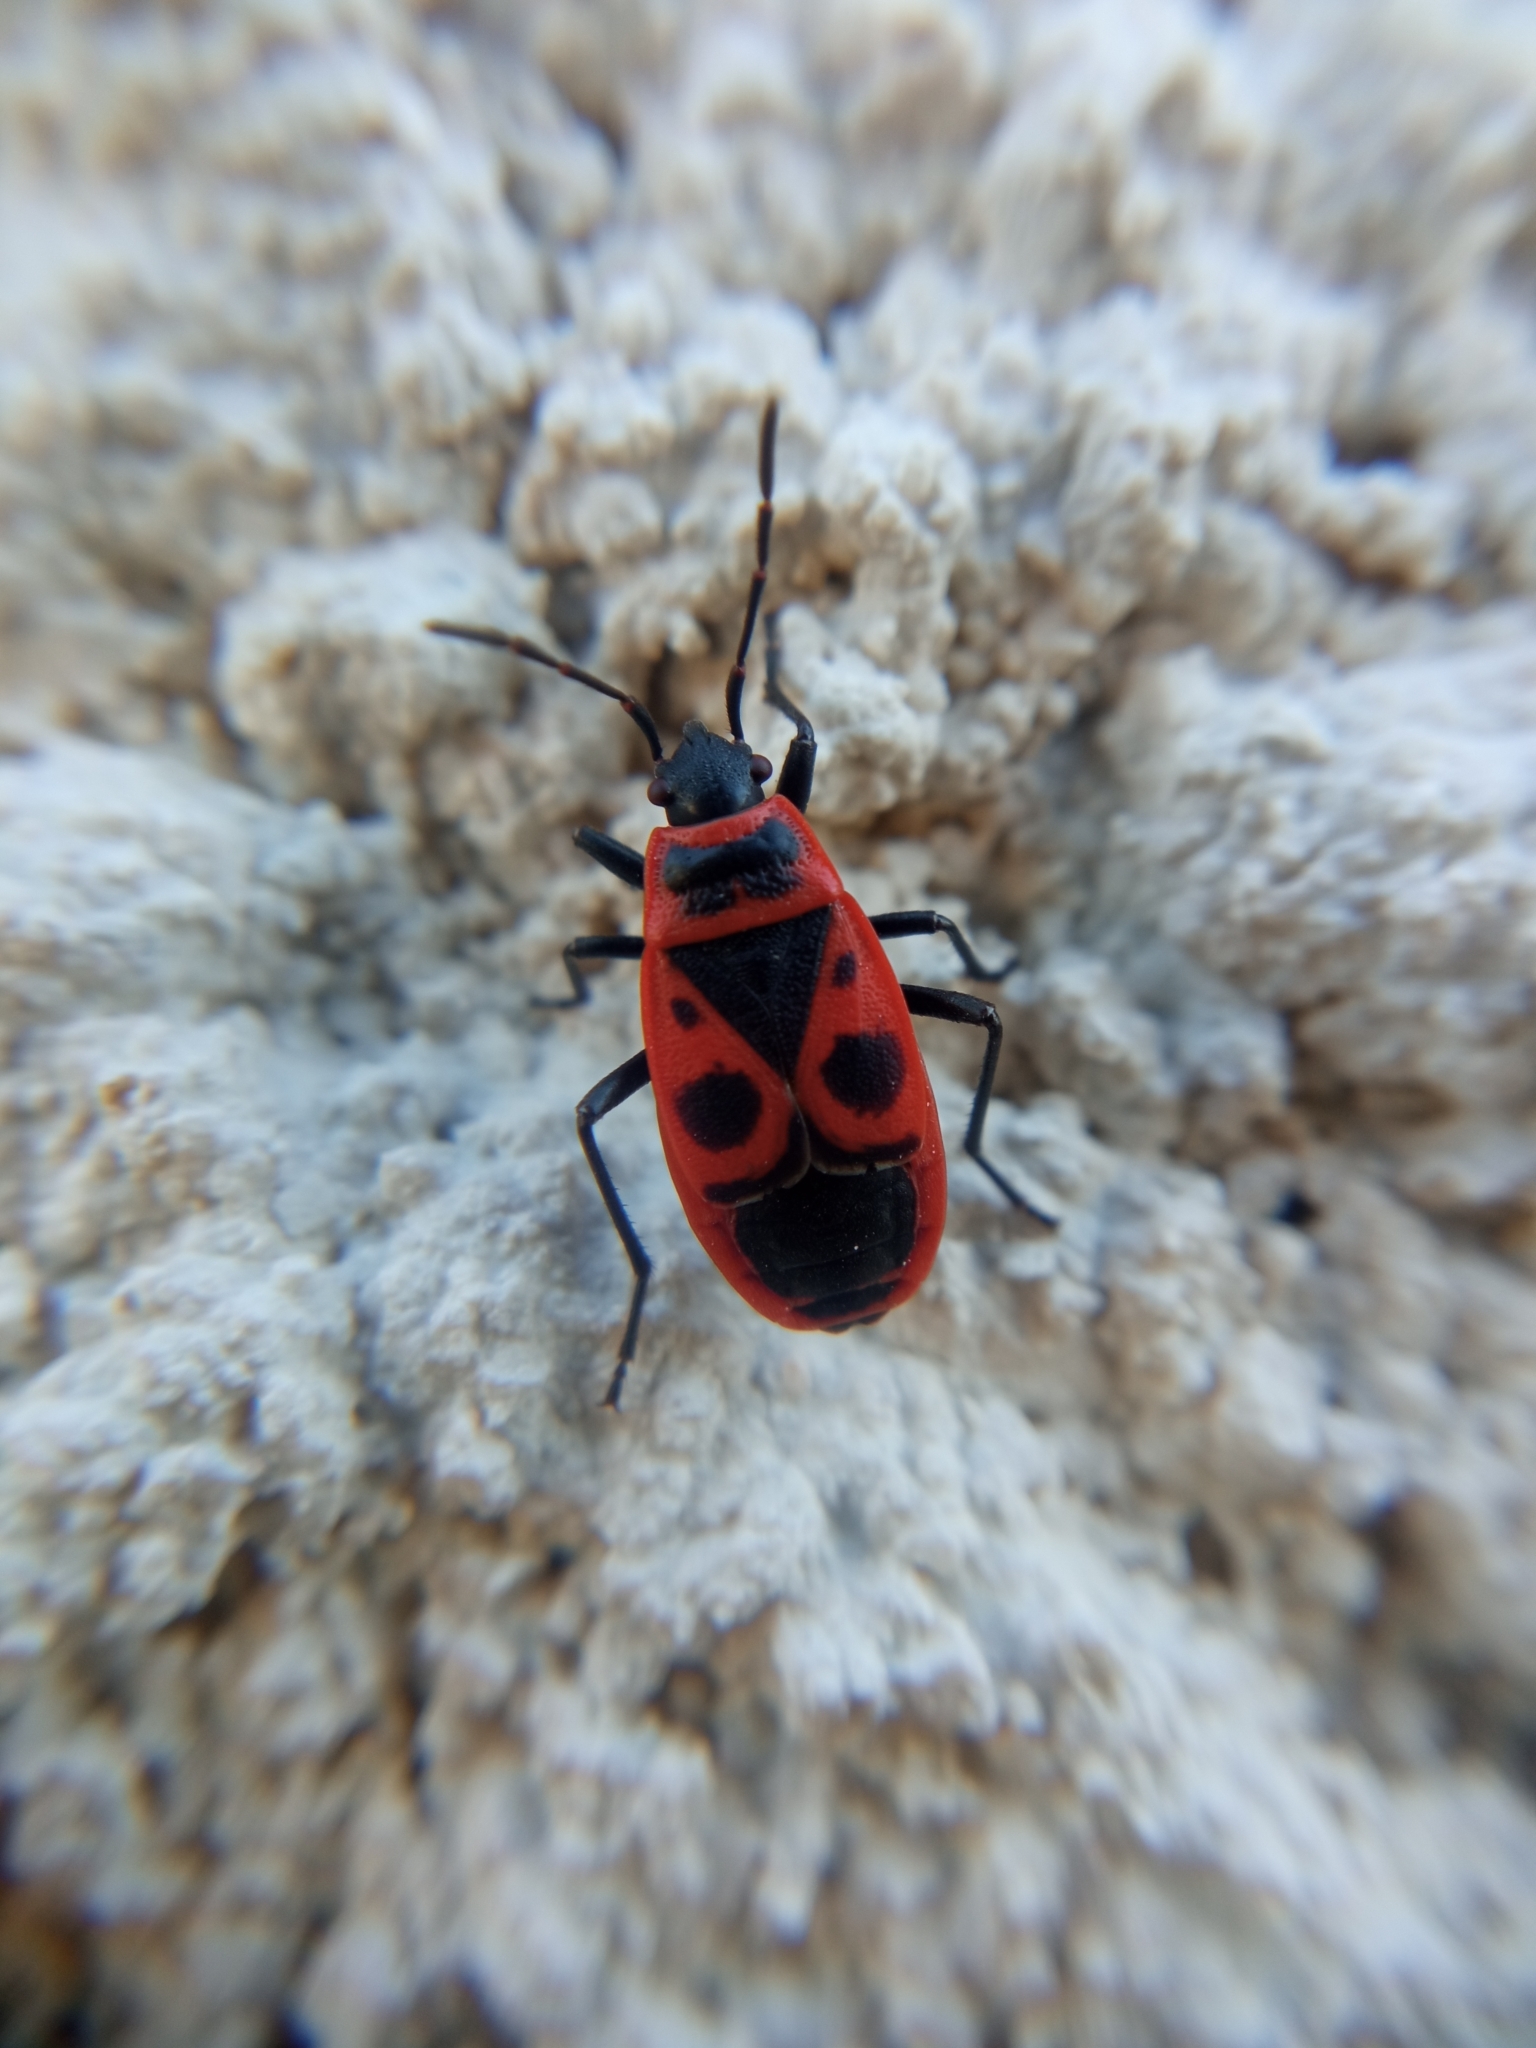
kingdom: Animalia
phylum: Arthropoda
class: Insecta
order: Hemiptera
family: Pyrrhocoridae
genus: Pyrrhocoris
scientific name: Pyrrhocoris apterus
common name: Firebug
